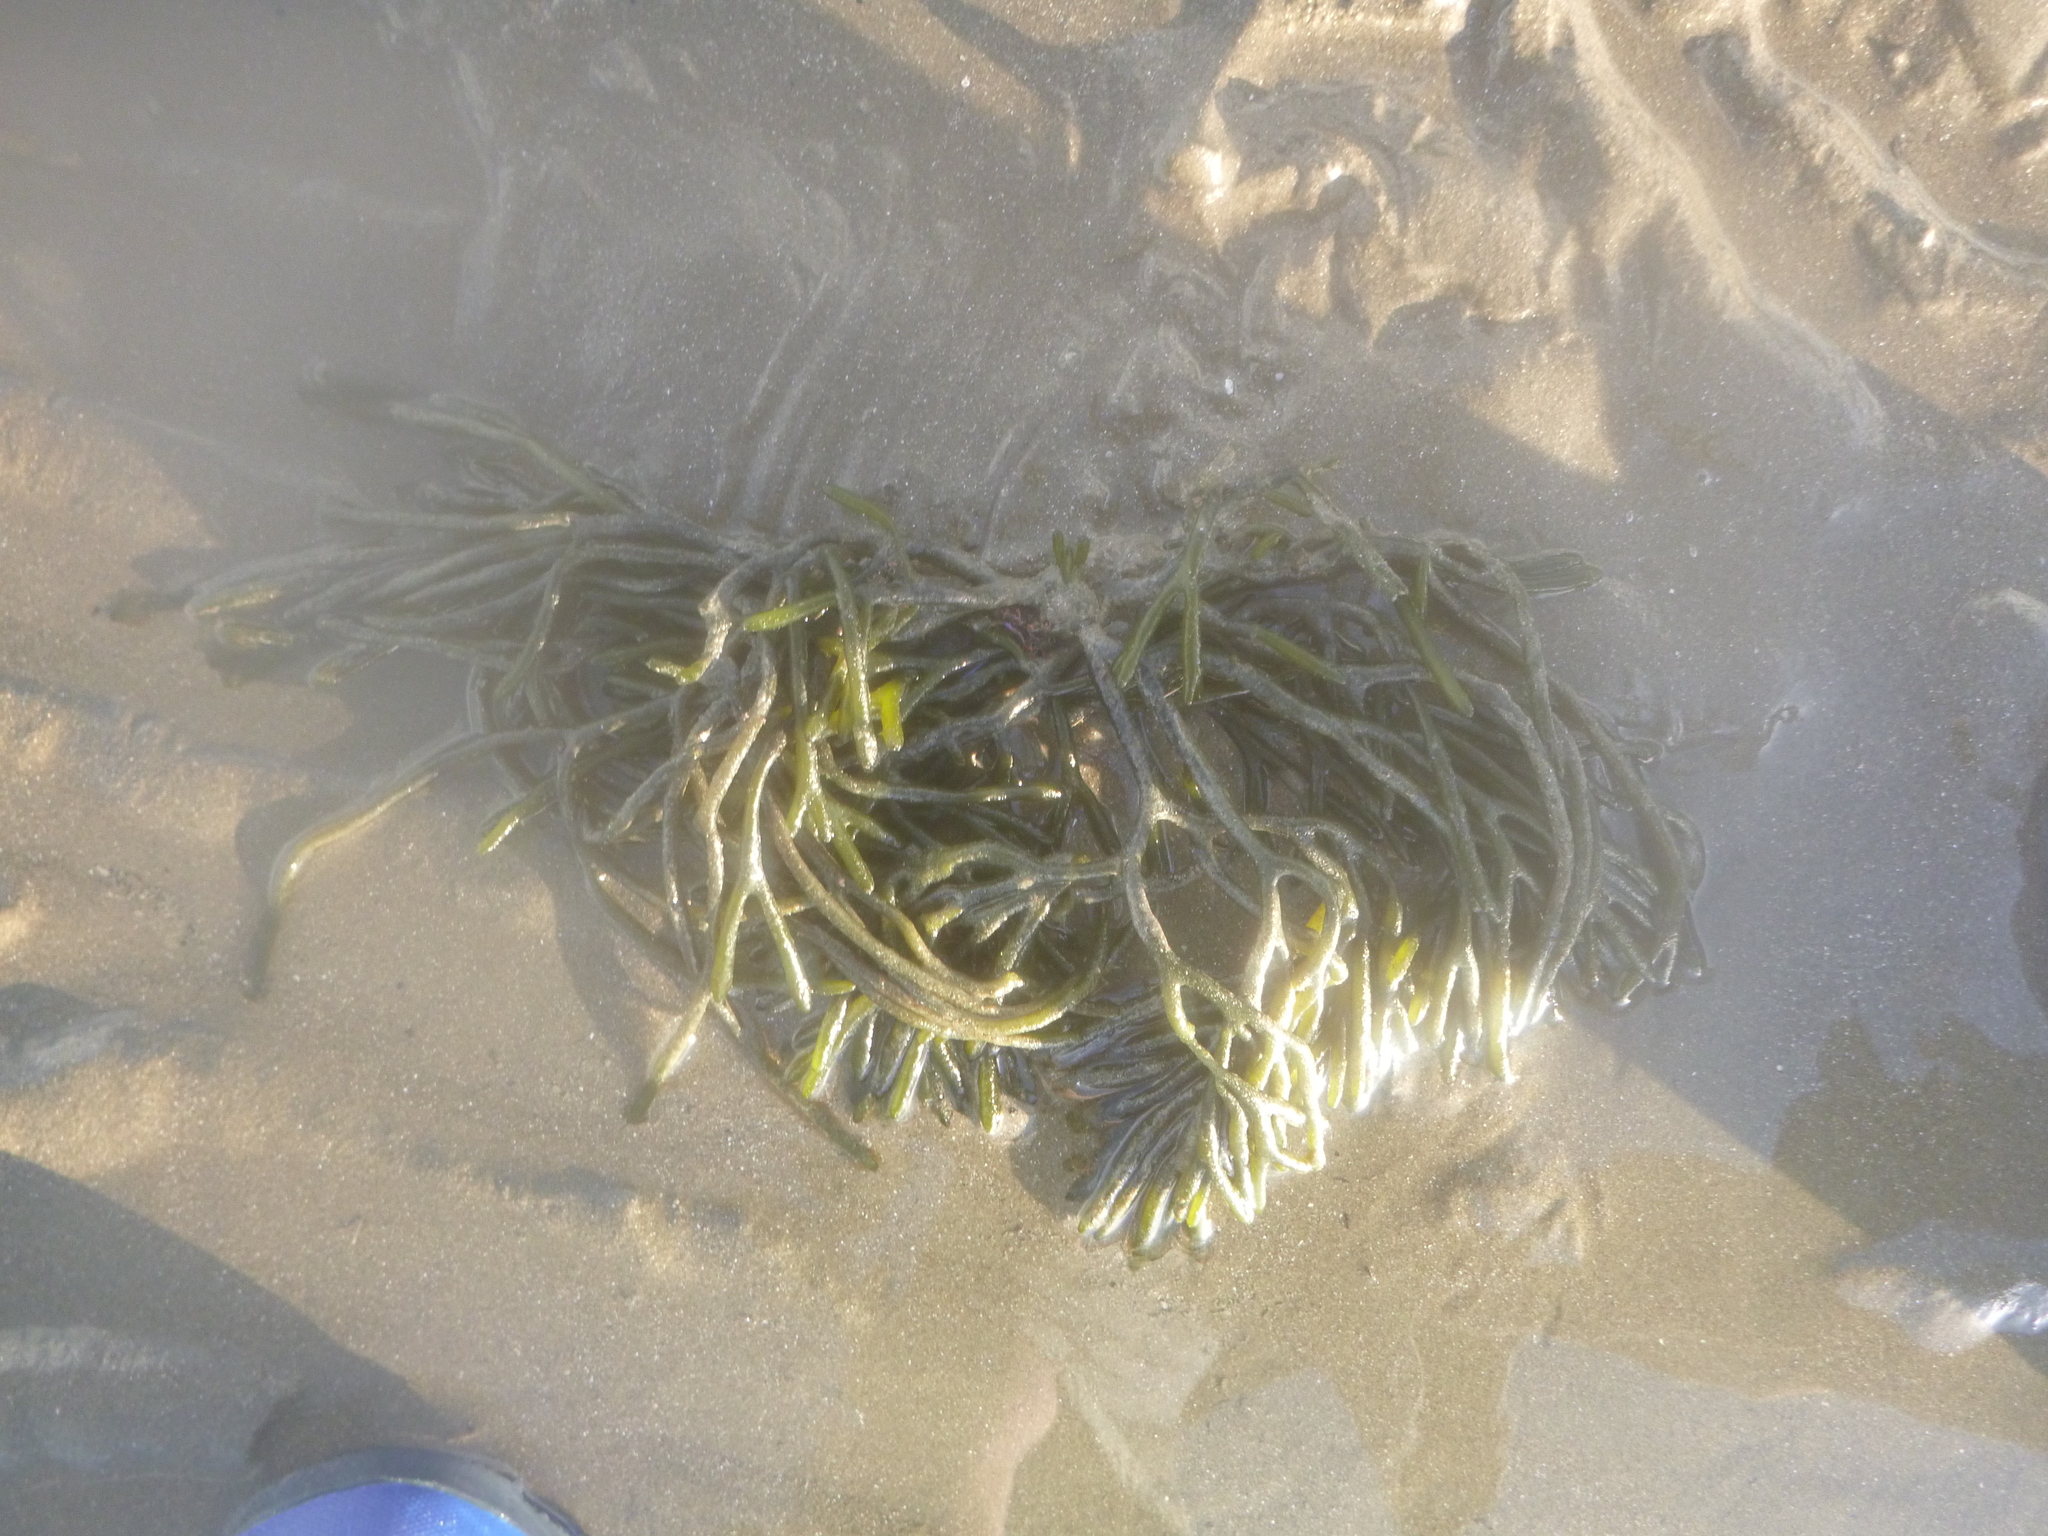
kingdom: Plantae
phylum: Chlorophyta
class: Ulvophyceae
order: Bryopsidales
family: Codiaceae
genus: Codium
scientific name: Codium fragile
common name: Dead man's fingers
